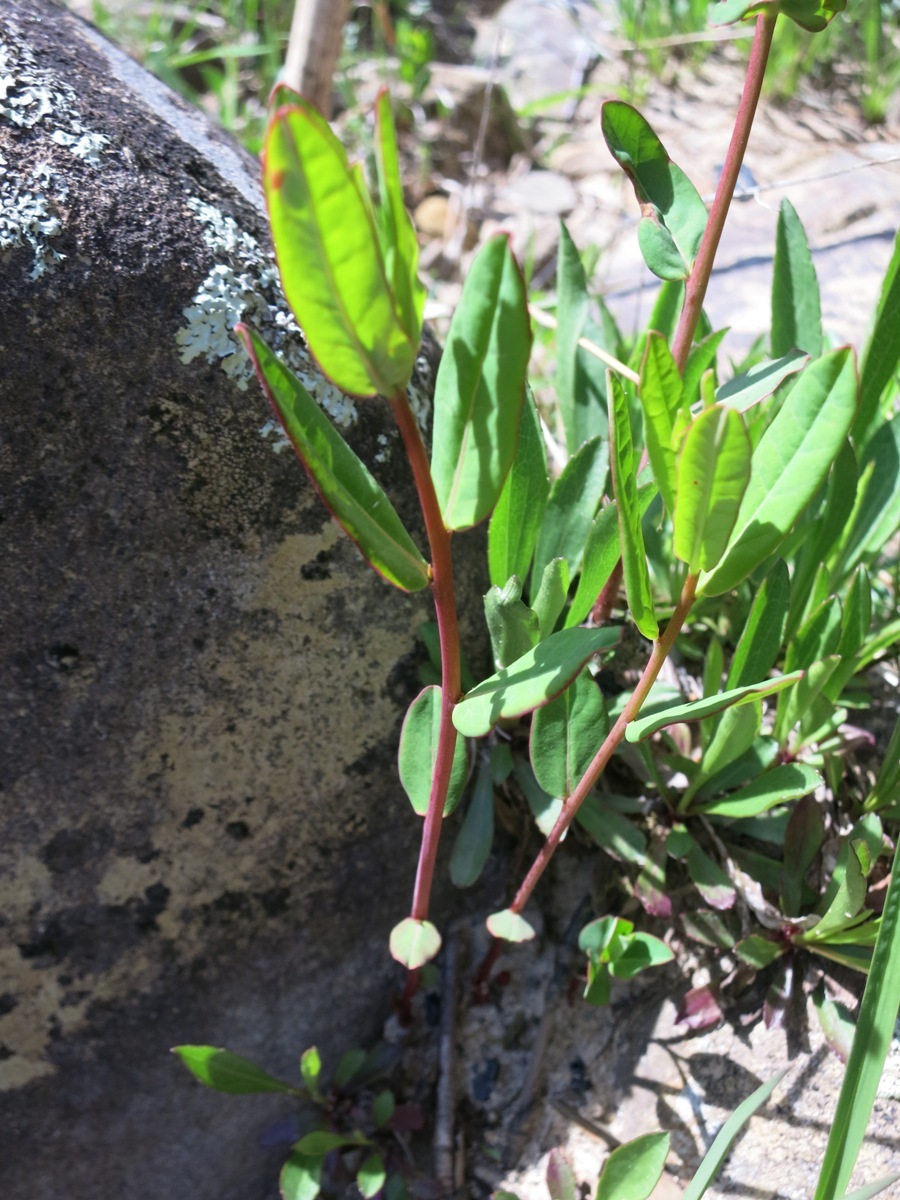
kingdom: Plantae
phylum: Tracheophyta
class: Magnoliopsida
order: Malpighiales
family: Euphorbiaceae
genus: Euphorbia
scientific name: Euphorbia corollata
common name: Flowering spurge
